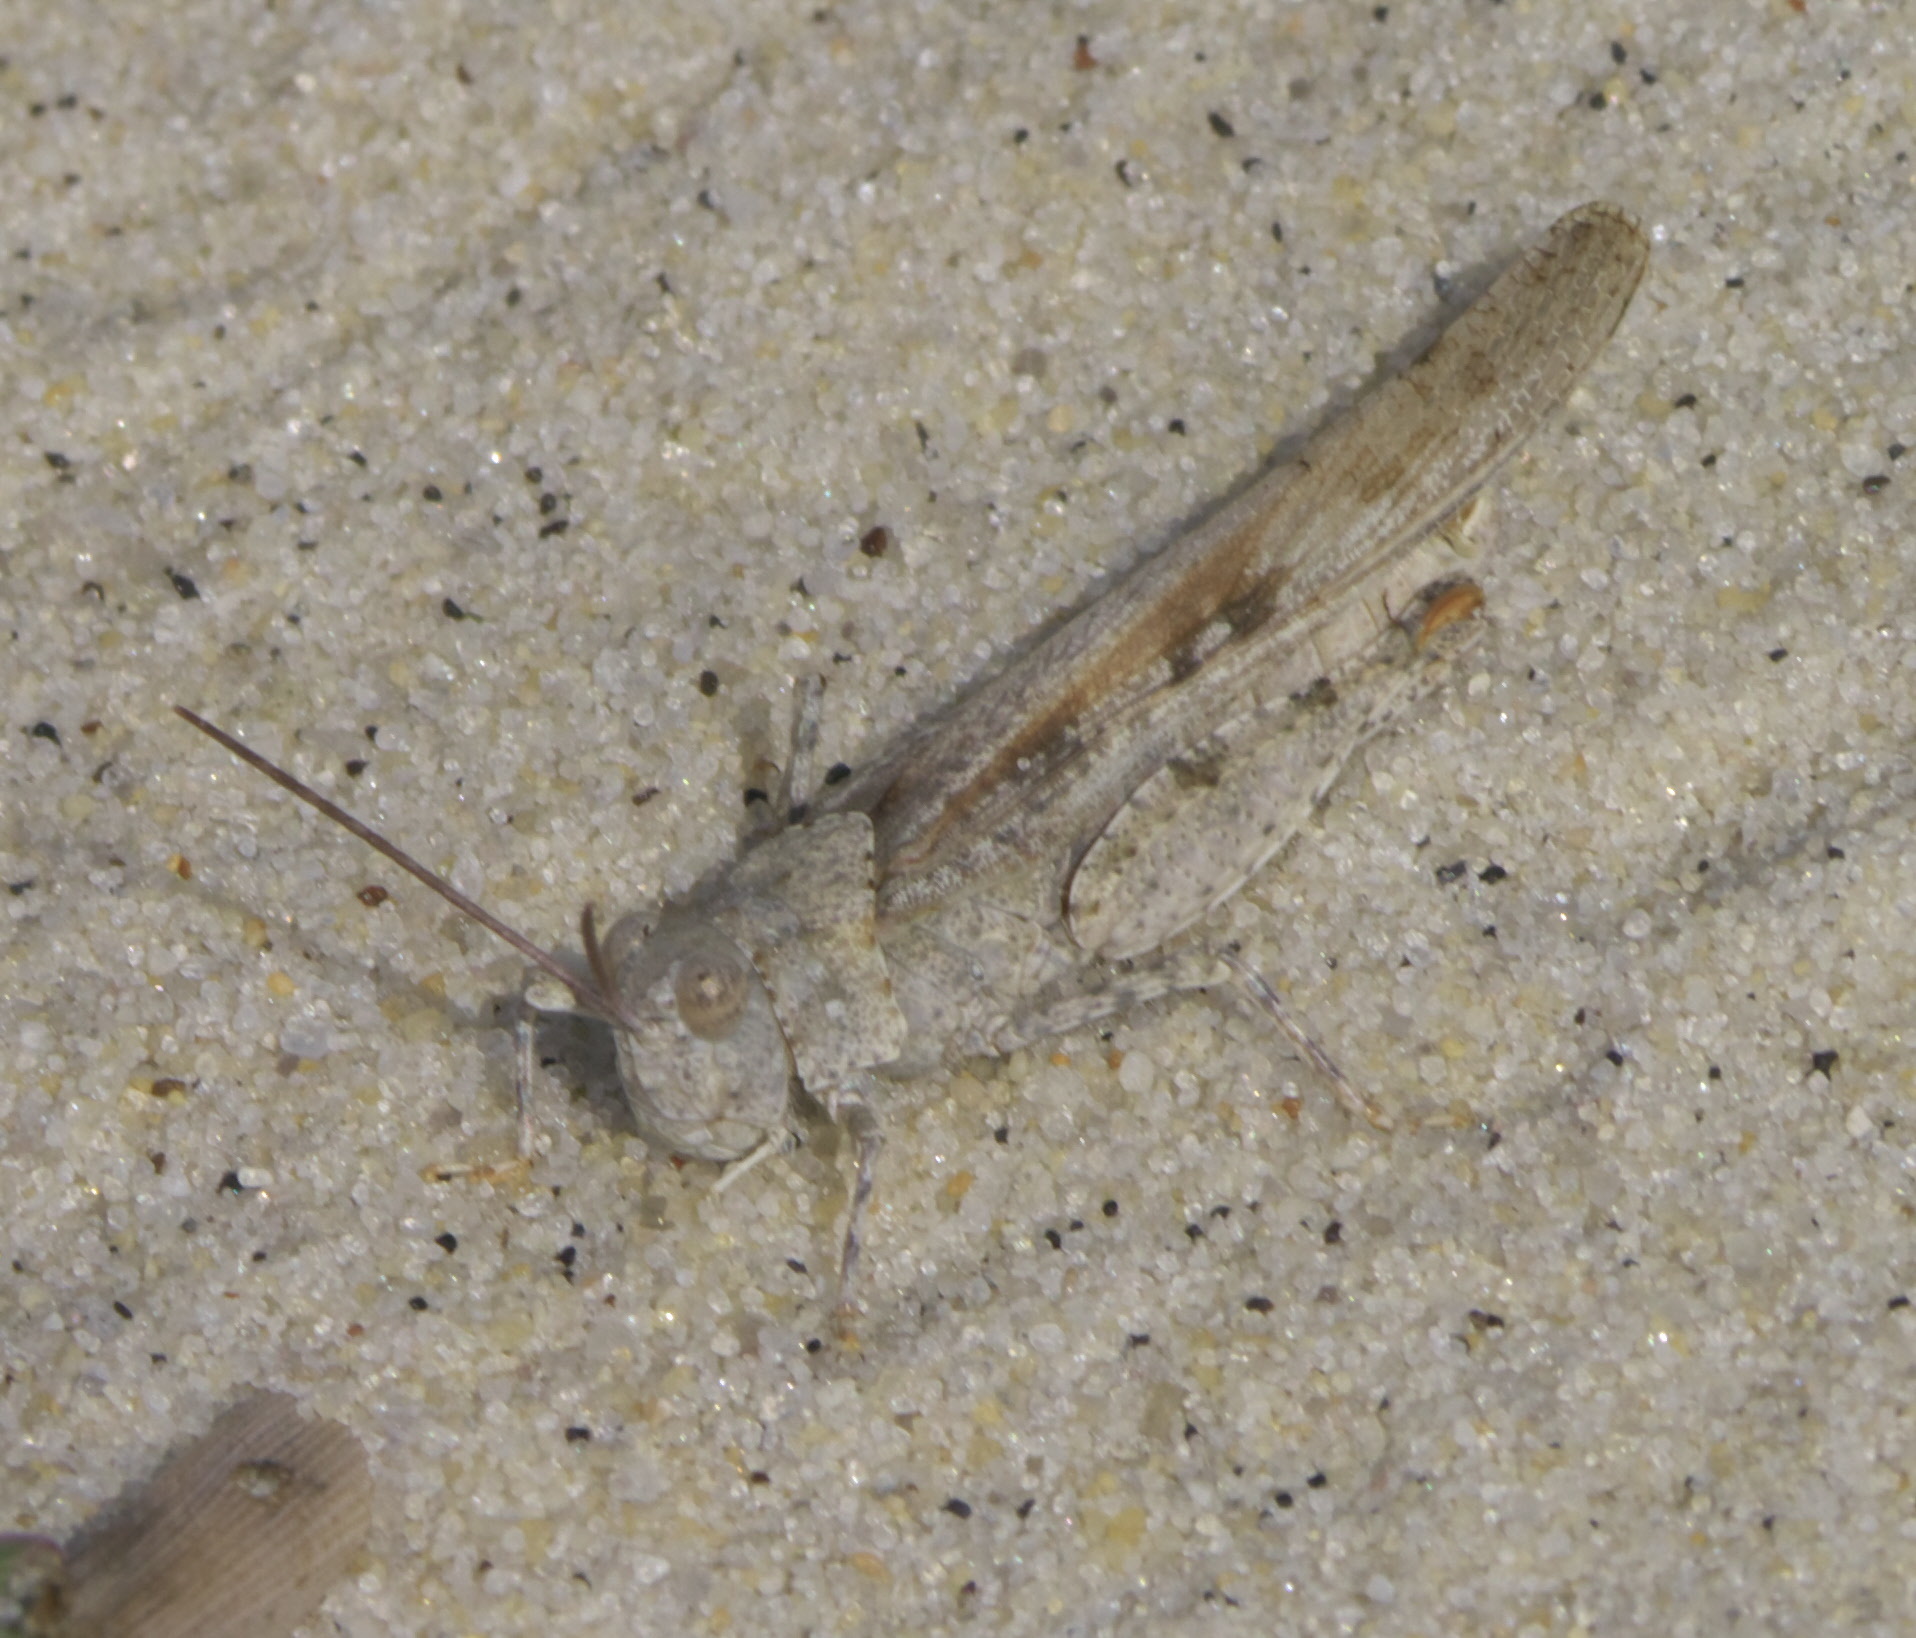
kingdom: Animalia
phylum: Arthropoda
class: Insecta
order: Orthoptera
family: Acrididae
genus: Trimerotropis
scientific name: Trimerotropis maritima
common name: Seaside locust
